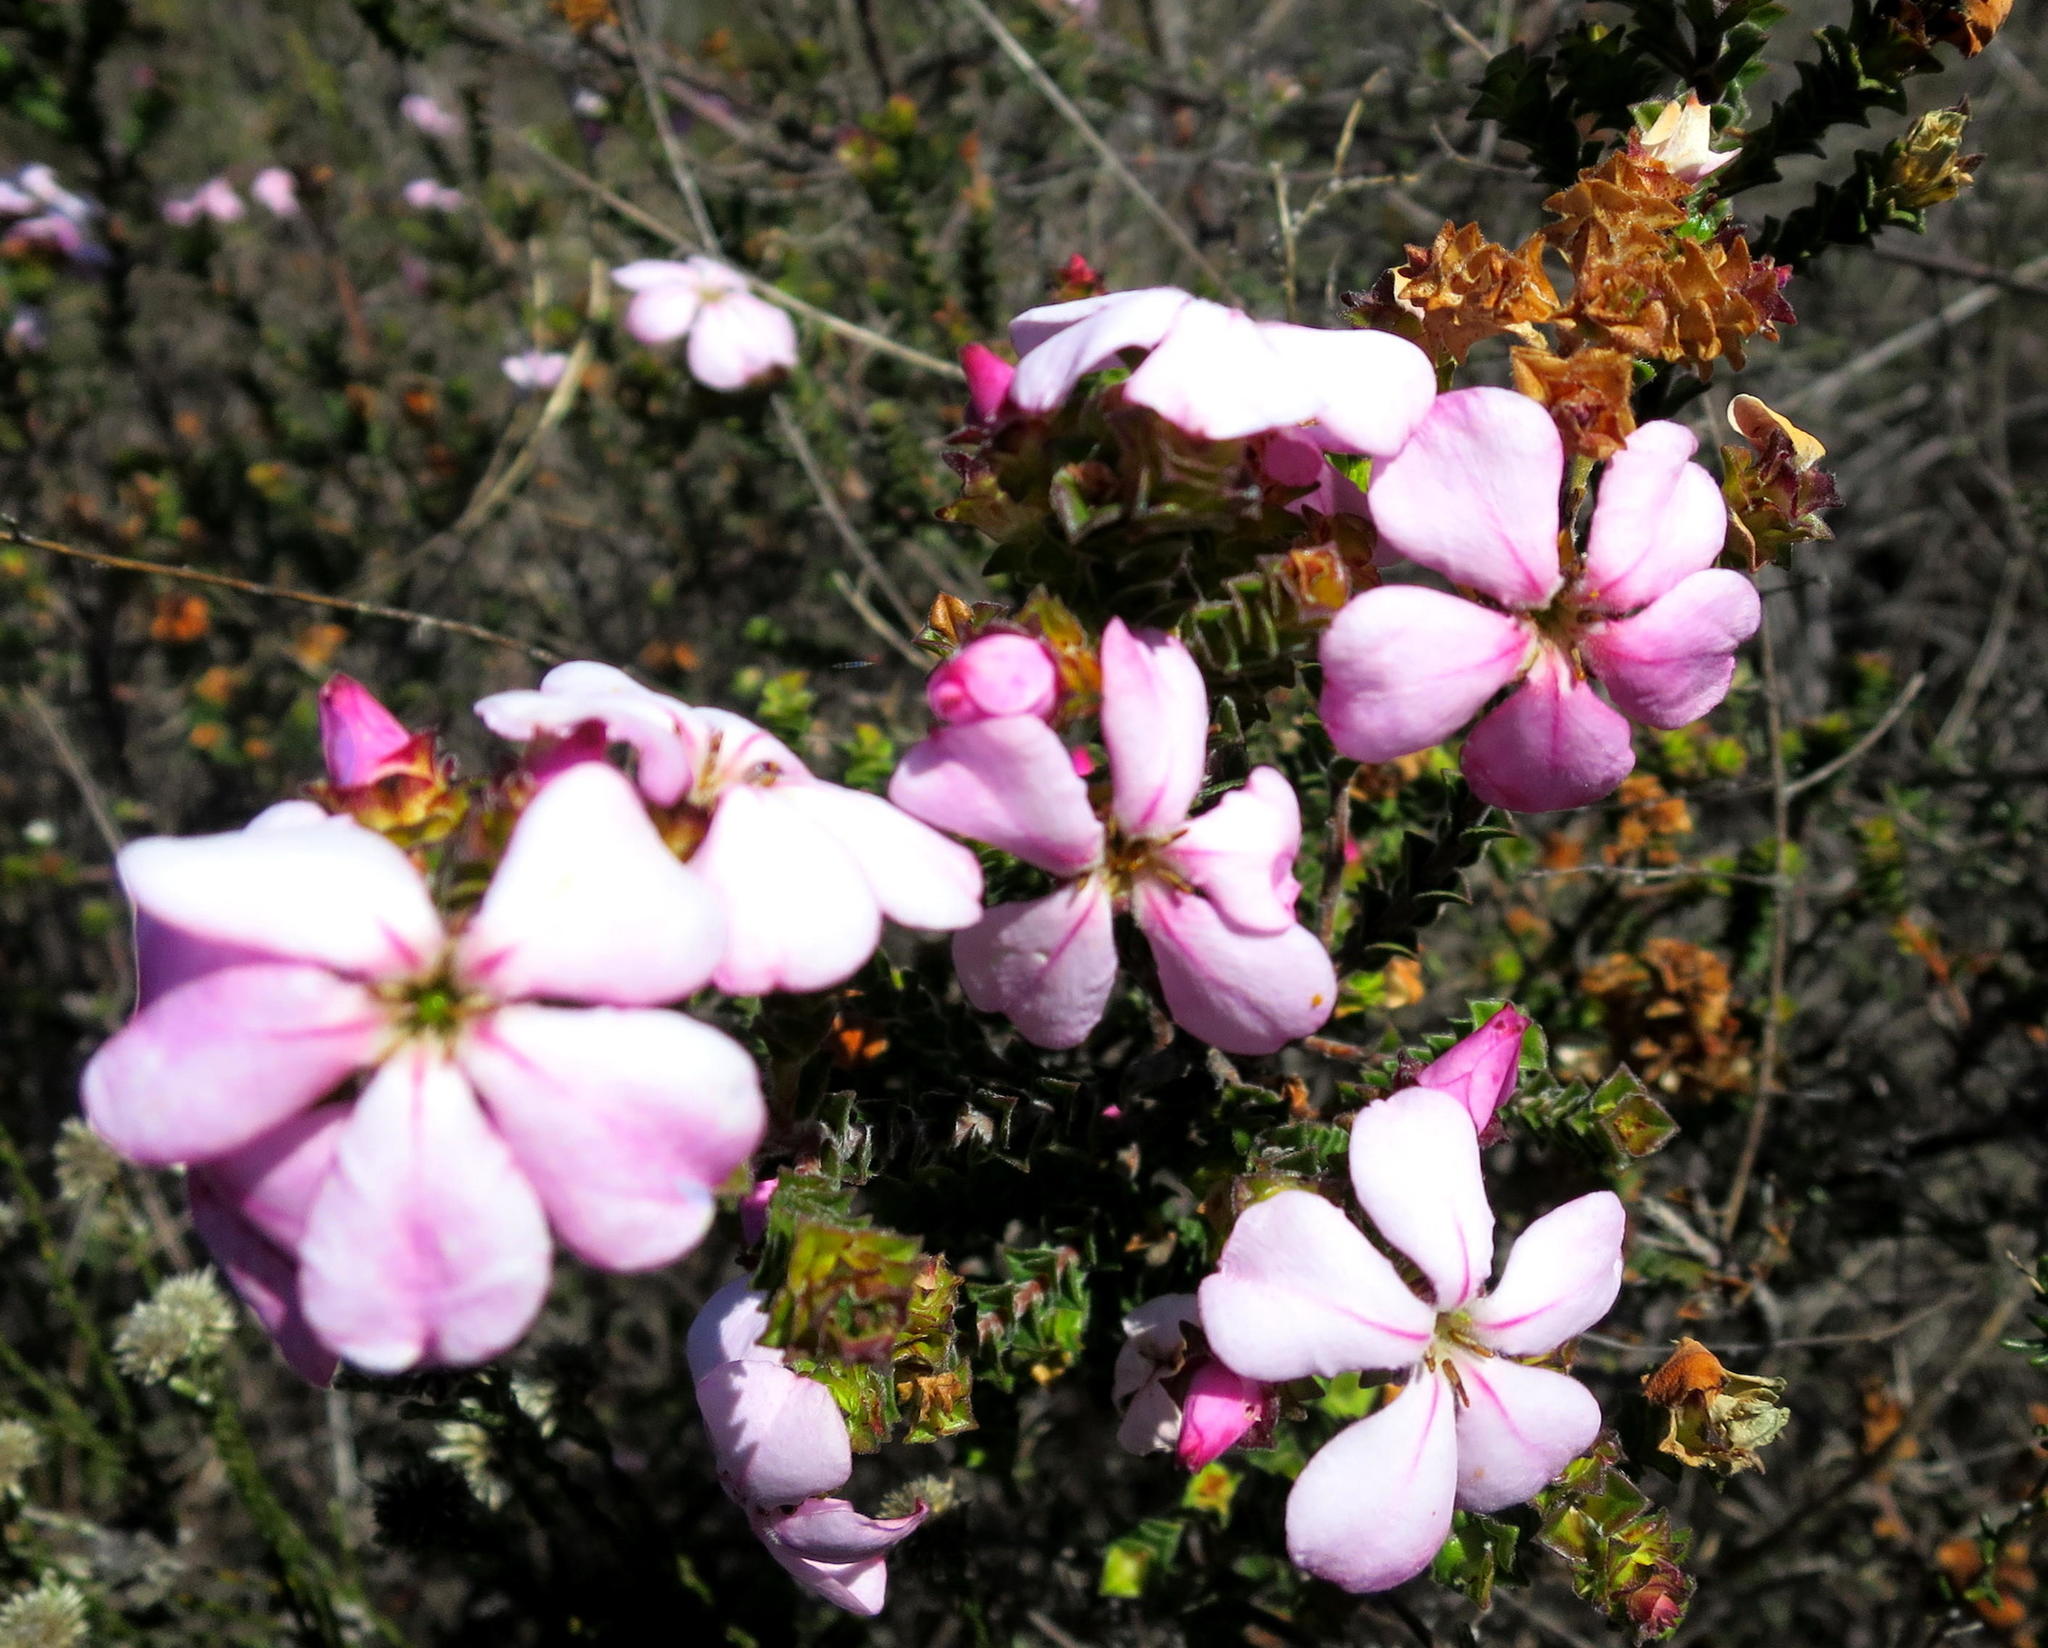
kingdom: Plantae
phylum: Tracheophyta
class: Magnoliopsida
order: Sapindales
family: Rutaceae
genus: Acmadenia
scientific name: Acmadenia tetragona
